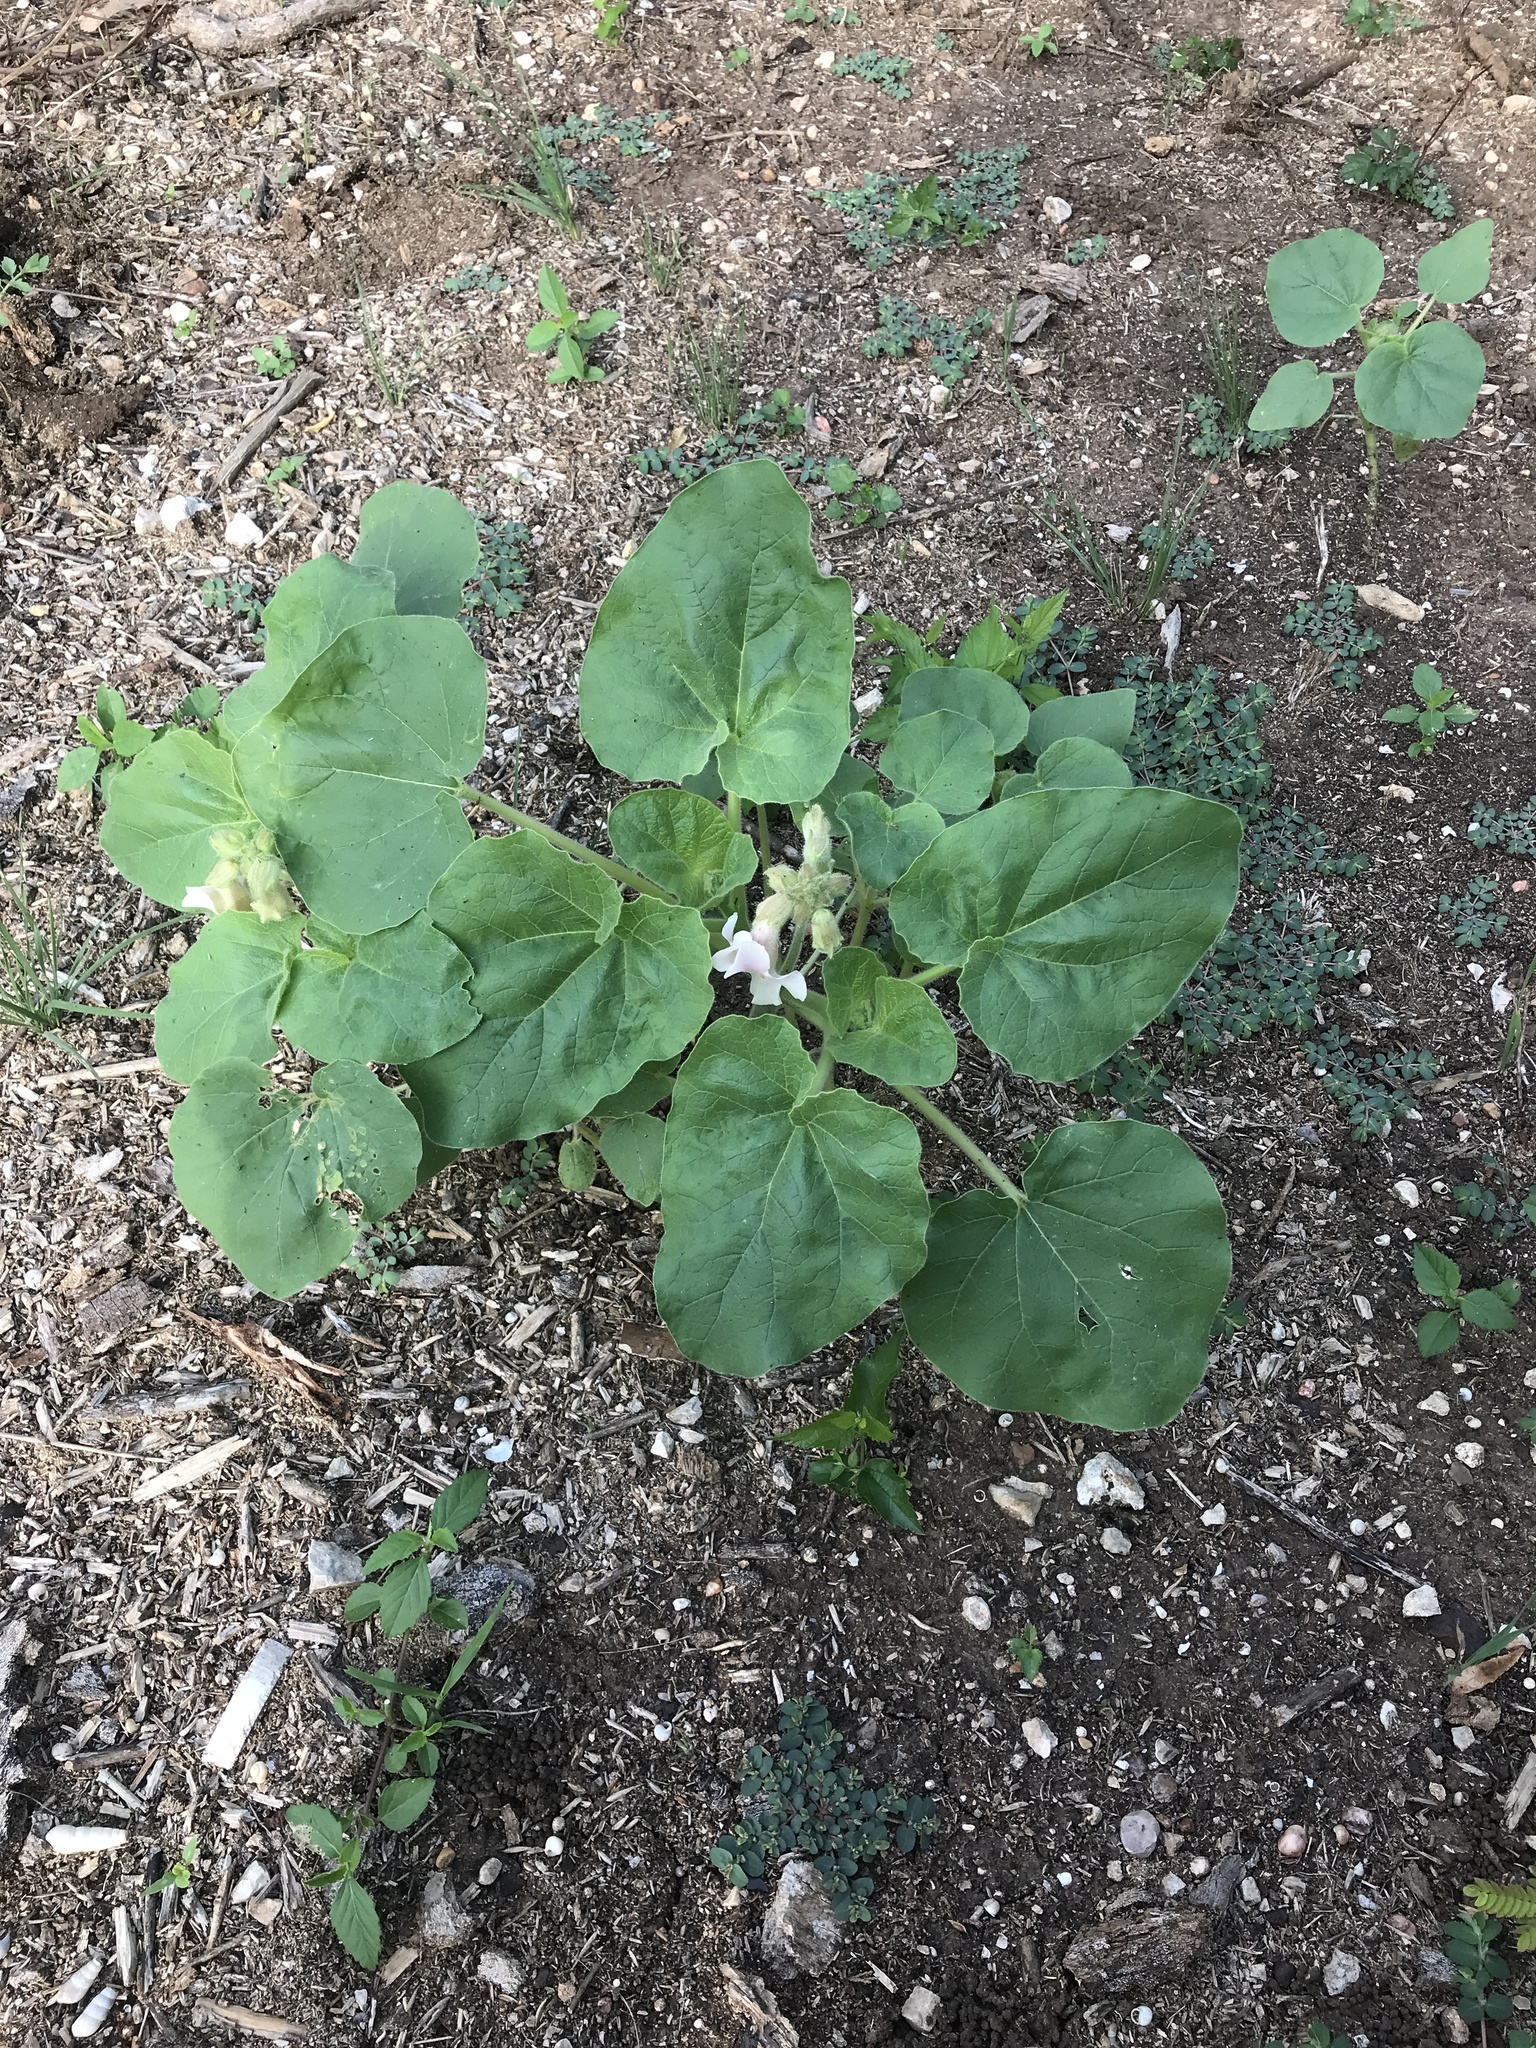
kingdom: Plantae
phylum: Tracheophyta
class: Magnoliopsida
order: Lamiales
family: Martyniaceae
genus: Proboscidea
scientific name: Proboscidea louisianica
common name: Elephant tusks
